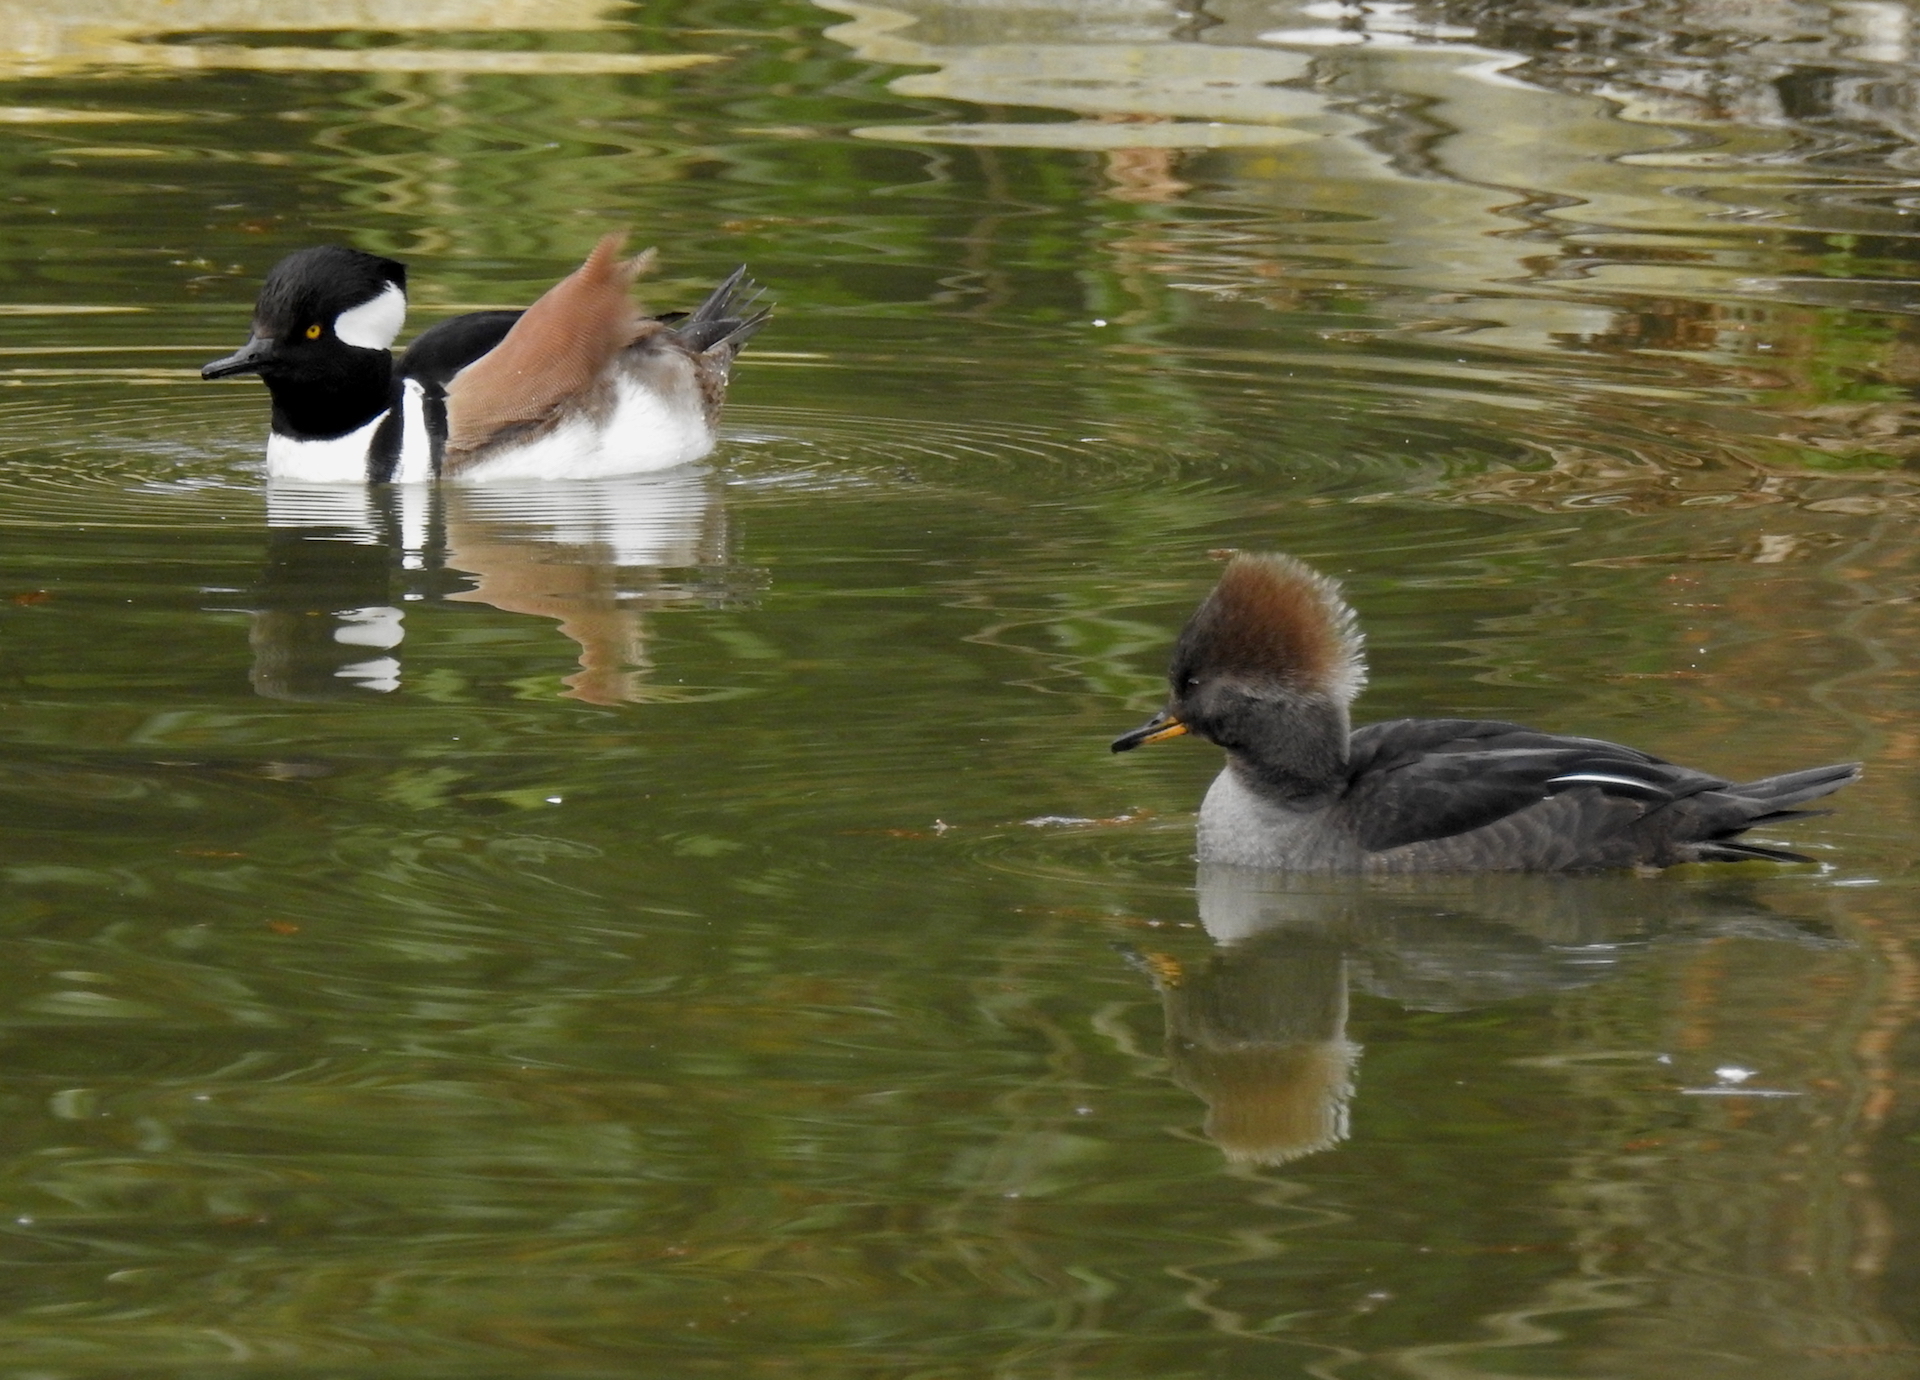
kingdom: Animalia
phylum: Chordata
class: Aves
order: Anseriformes
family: Anatidae
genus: Lophodytes
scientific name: Lophodytes cucullatus
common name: Hooded merganser
